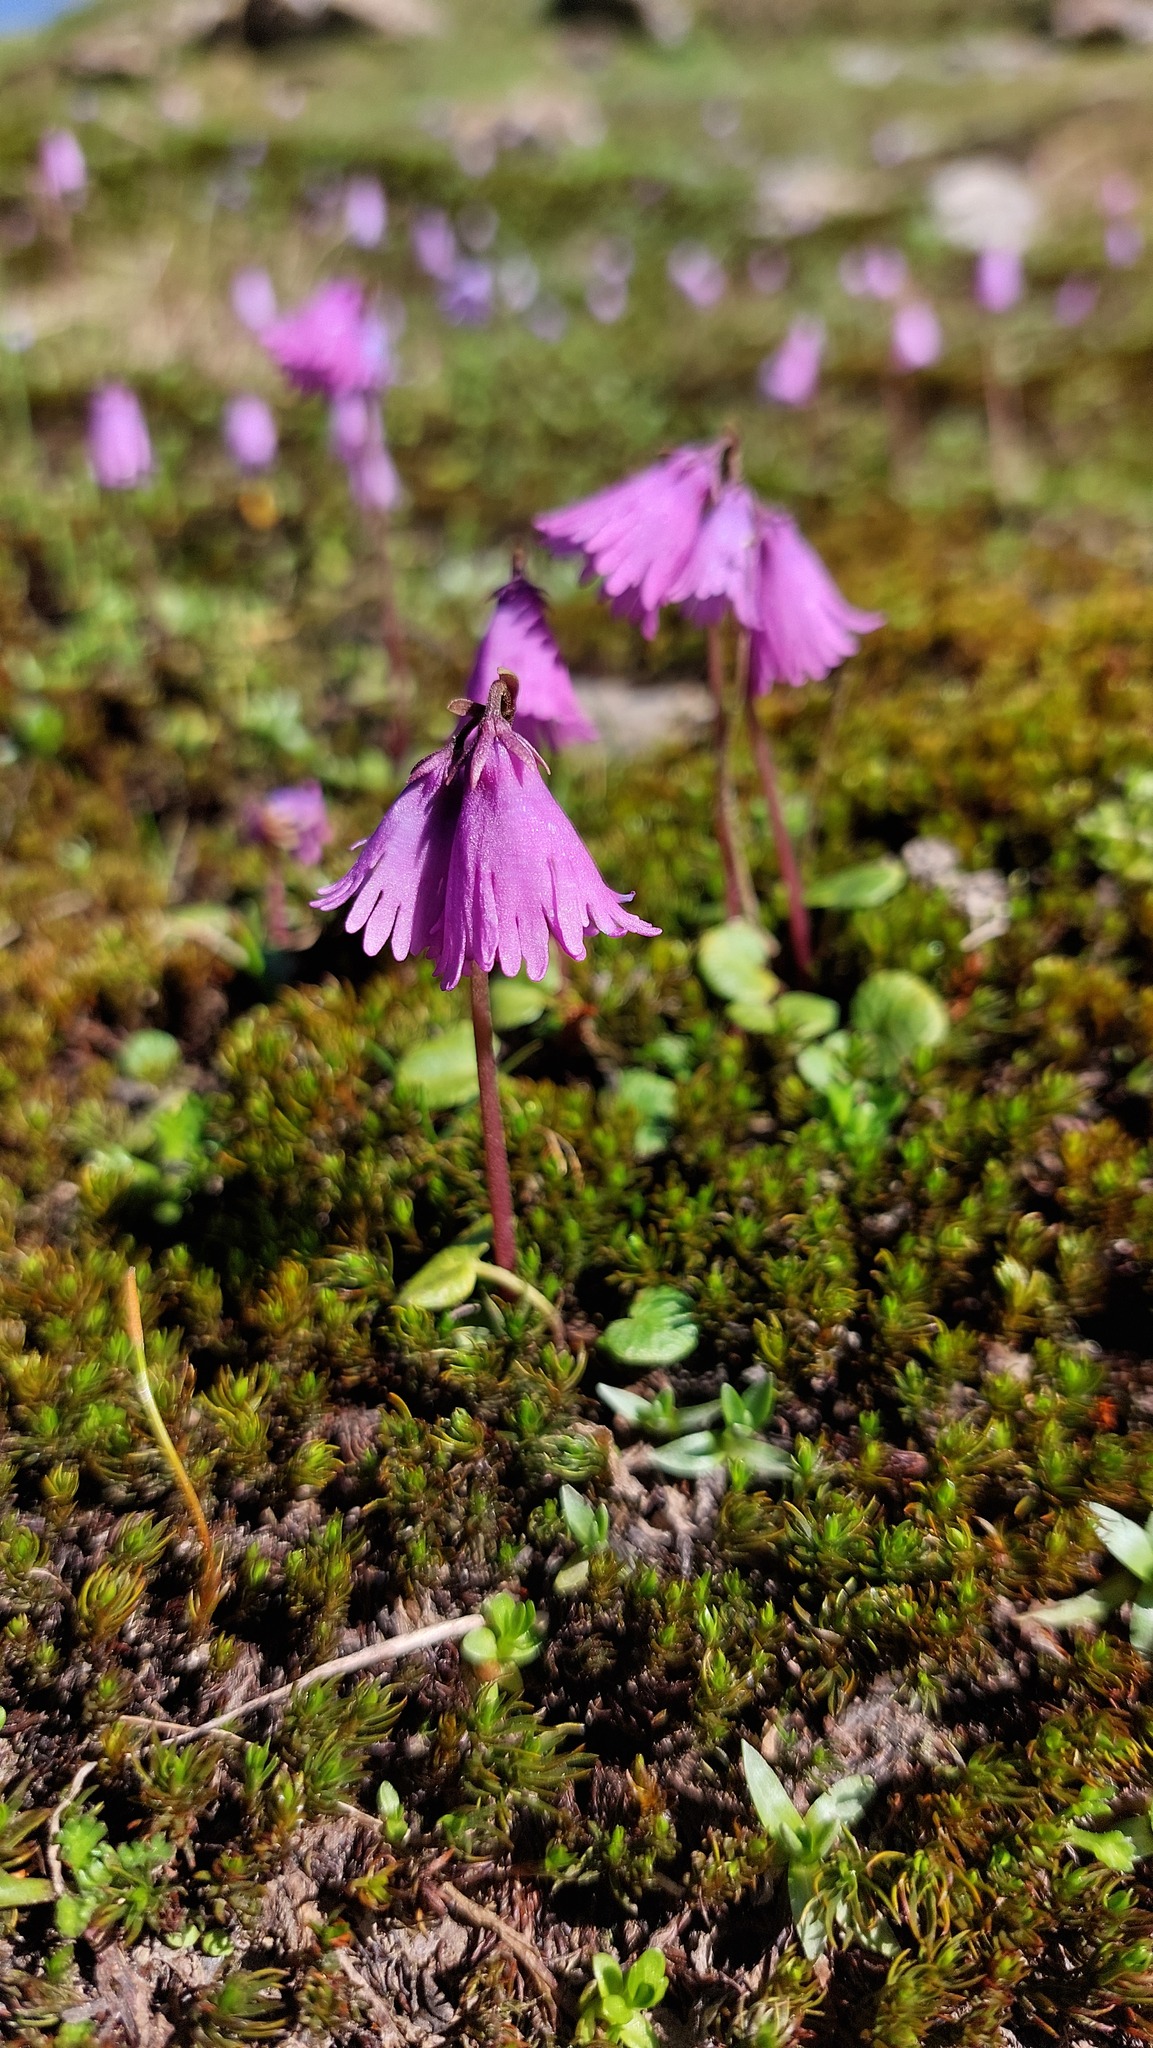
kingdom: Plantae
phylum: Tracheophyta
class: Magnoliopsida
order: Ericales
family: Primulaceae
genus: Soldanella
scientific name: Soldanella pusilla
